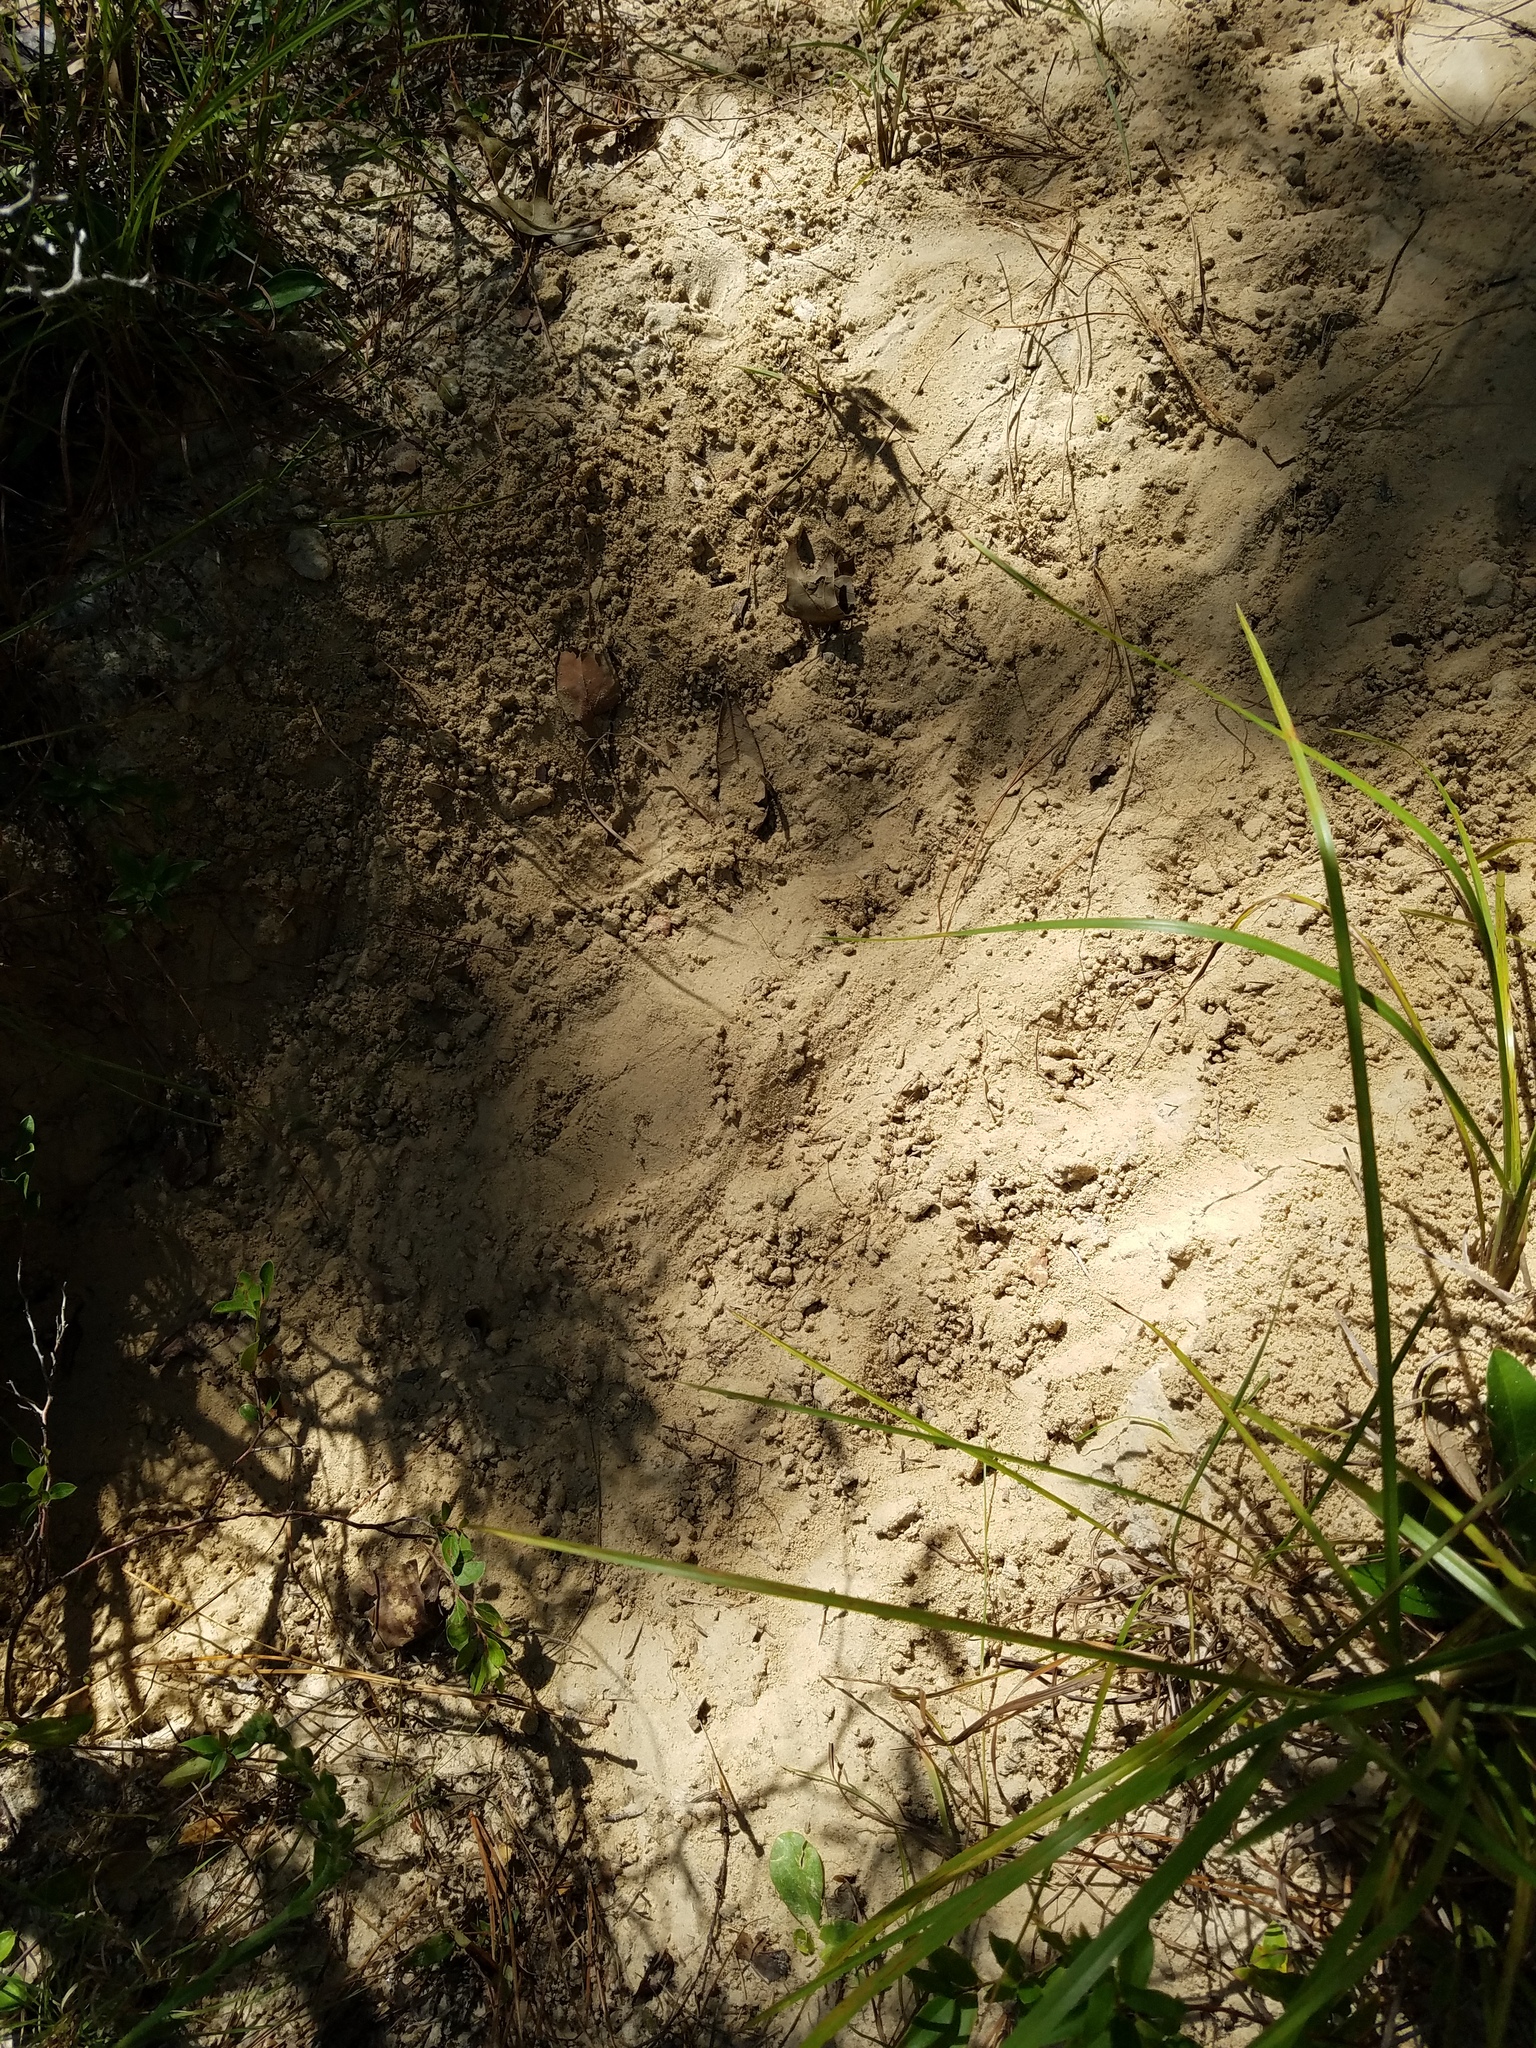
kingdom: Animalia
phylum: Chordata
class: Testudines
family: Testudinidae
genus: Gopherus
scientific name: Gopherus polyphemus
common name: Florida gopher tortoise
